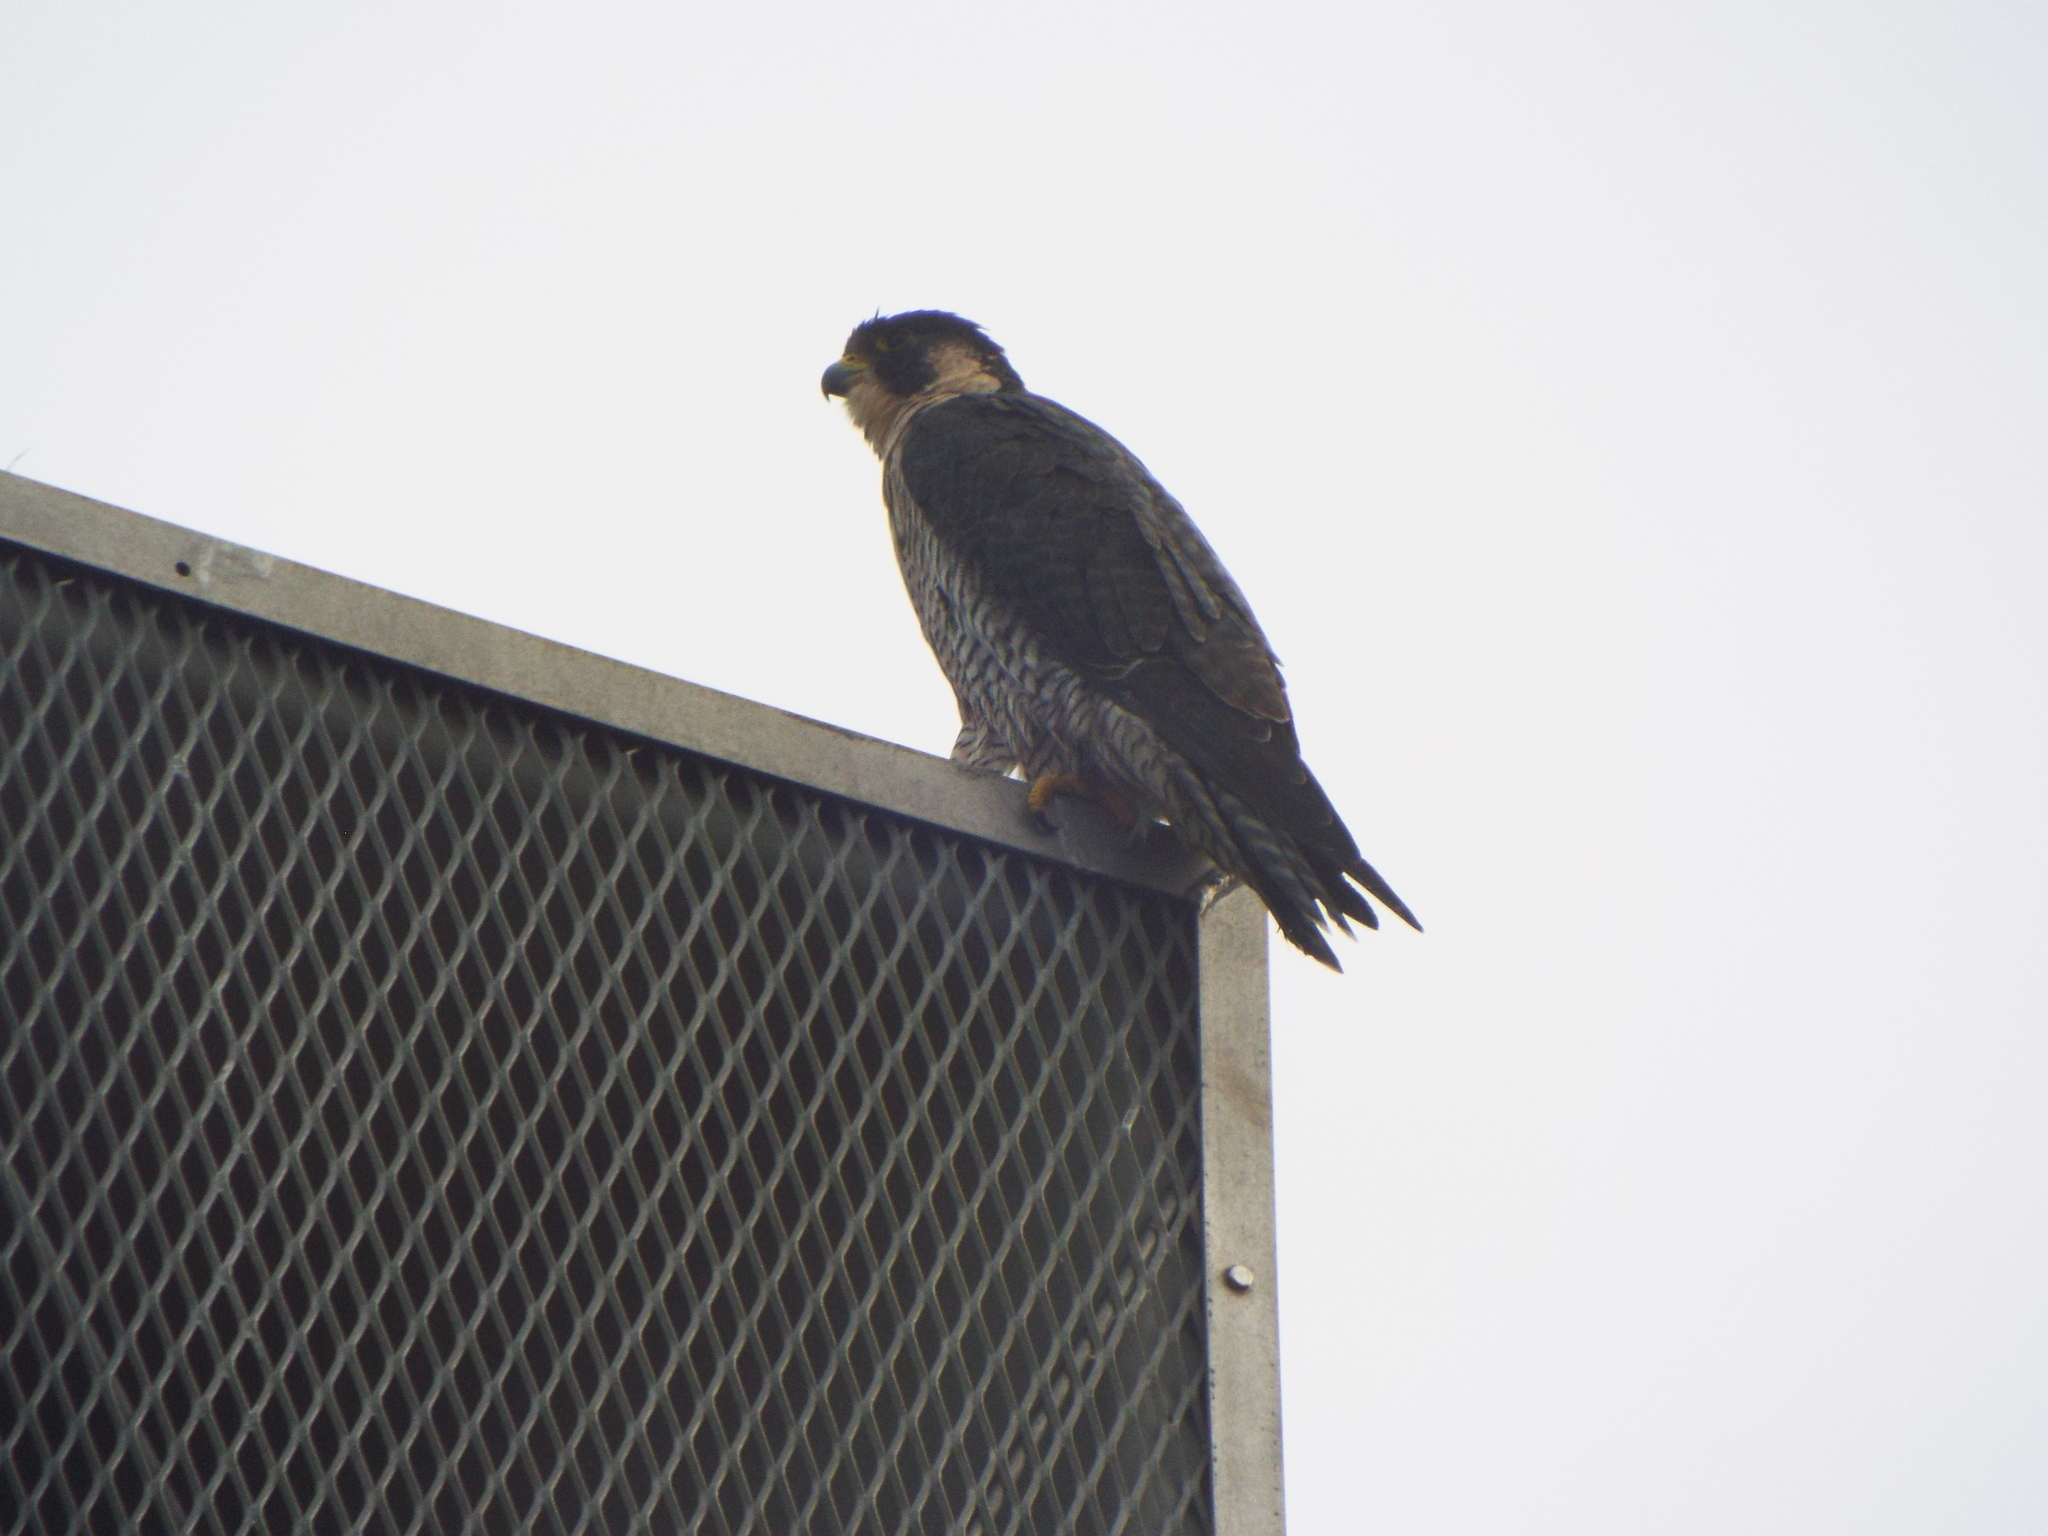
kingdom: Animalia
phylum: Chordata
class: Aves
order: Falconiformes
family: Falconidae
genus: Falco
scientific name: Falco peregrinus
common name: Peregrine falcon
